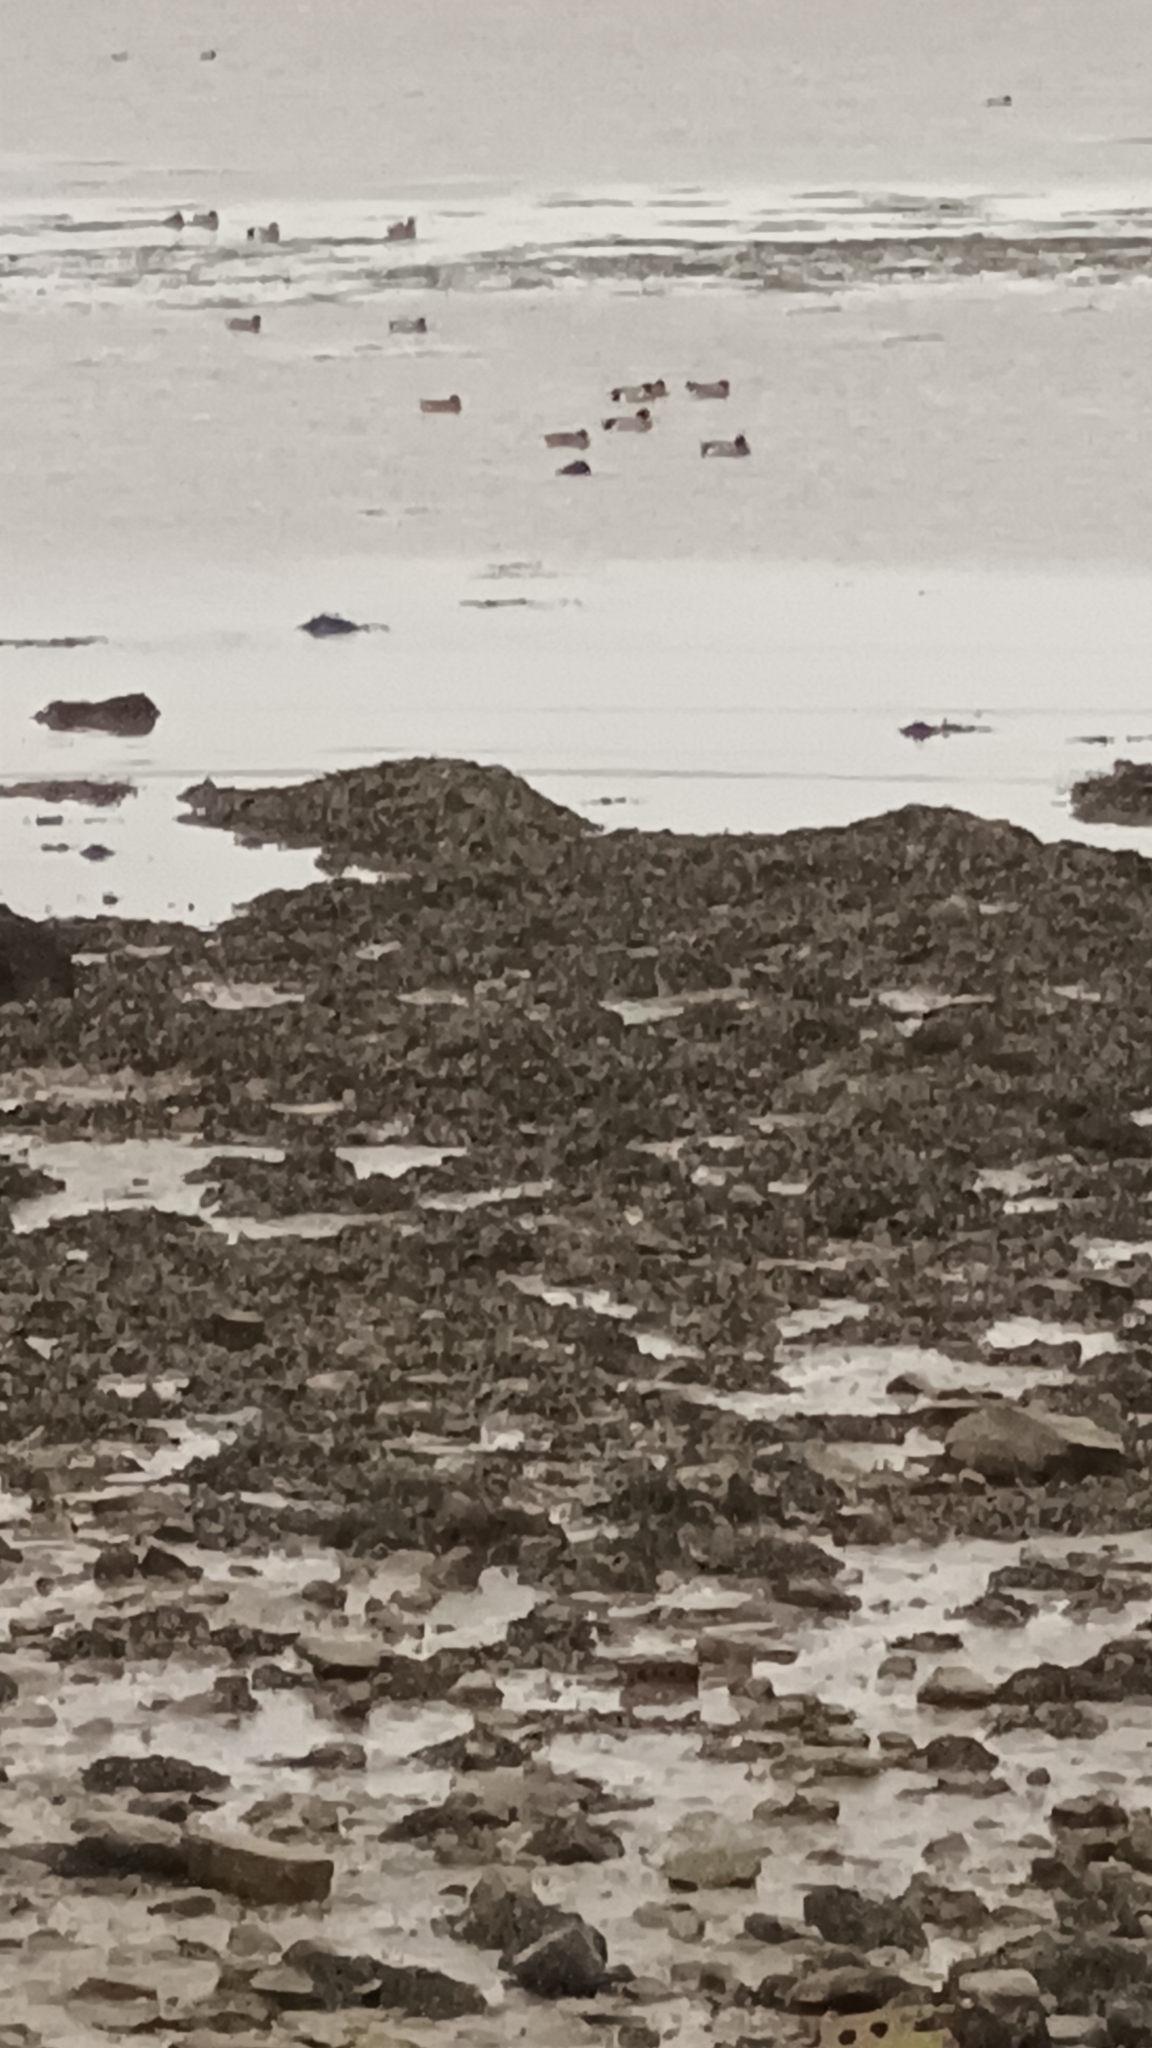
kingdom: Animalia
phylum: Chordata
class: Aves
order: Anseriformes
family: Anatidae
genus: Mareca
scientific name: Mareca penelope
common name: Eurasian wigeon
